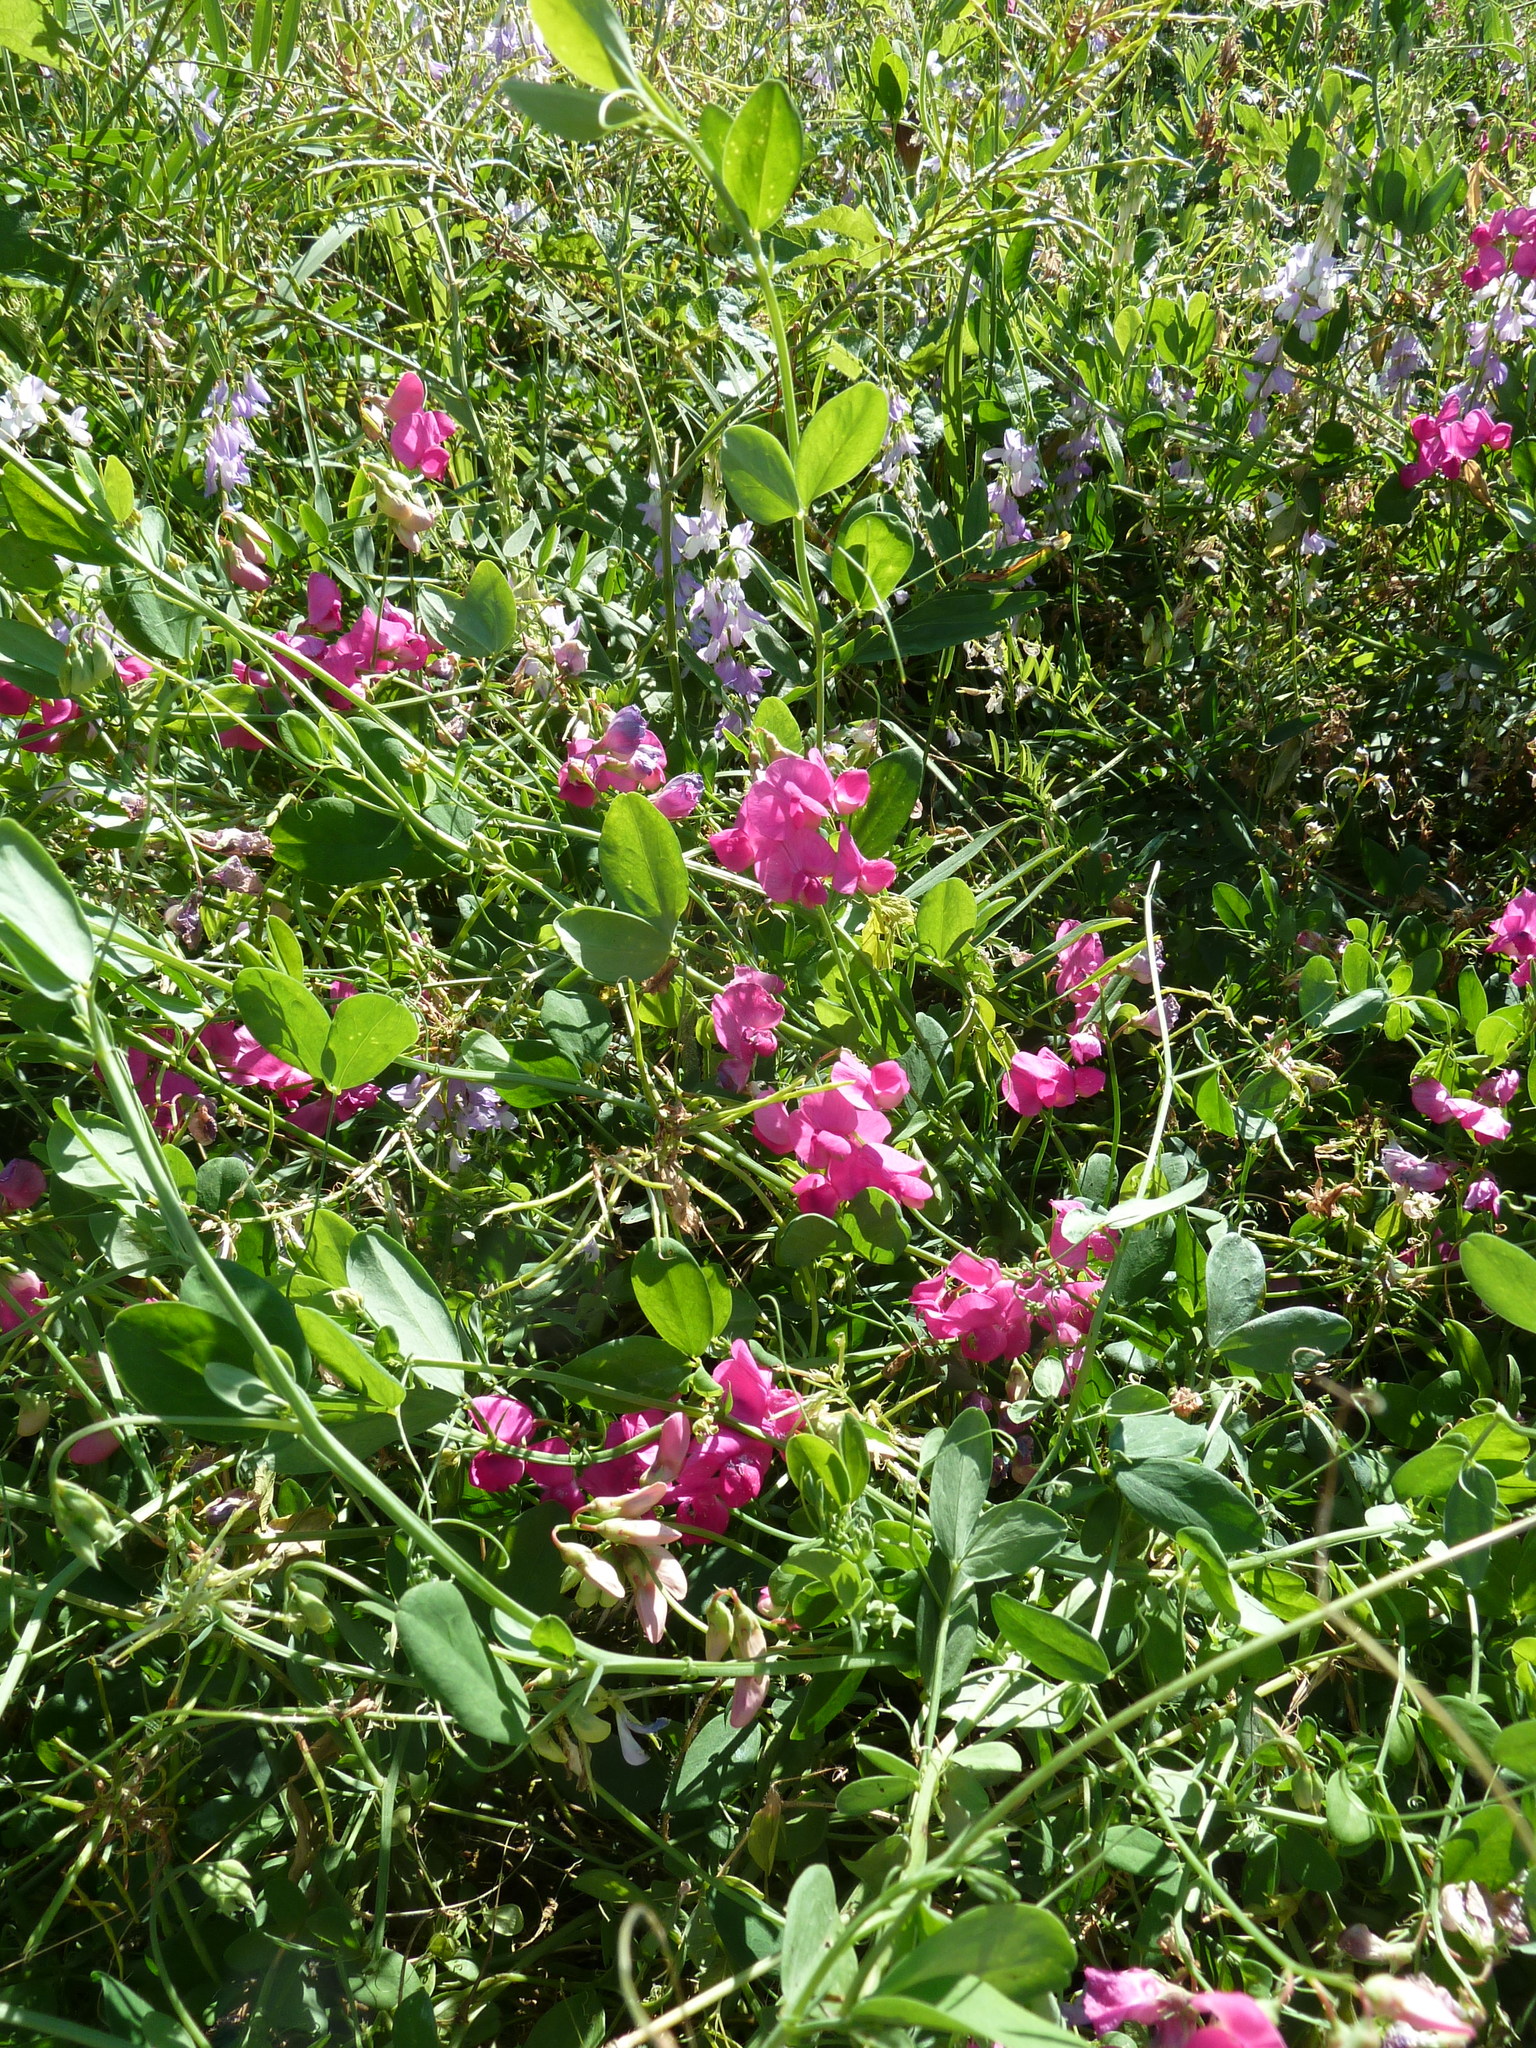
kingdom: Plantae
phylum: Tracheophyta
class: Magnoliopsida
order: Fabales
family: Fabaceae
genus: Lathyrus
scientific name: Lathyrus tuberosus
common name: Tuberous pea
